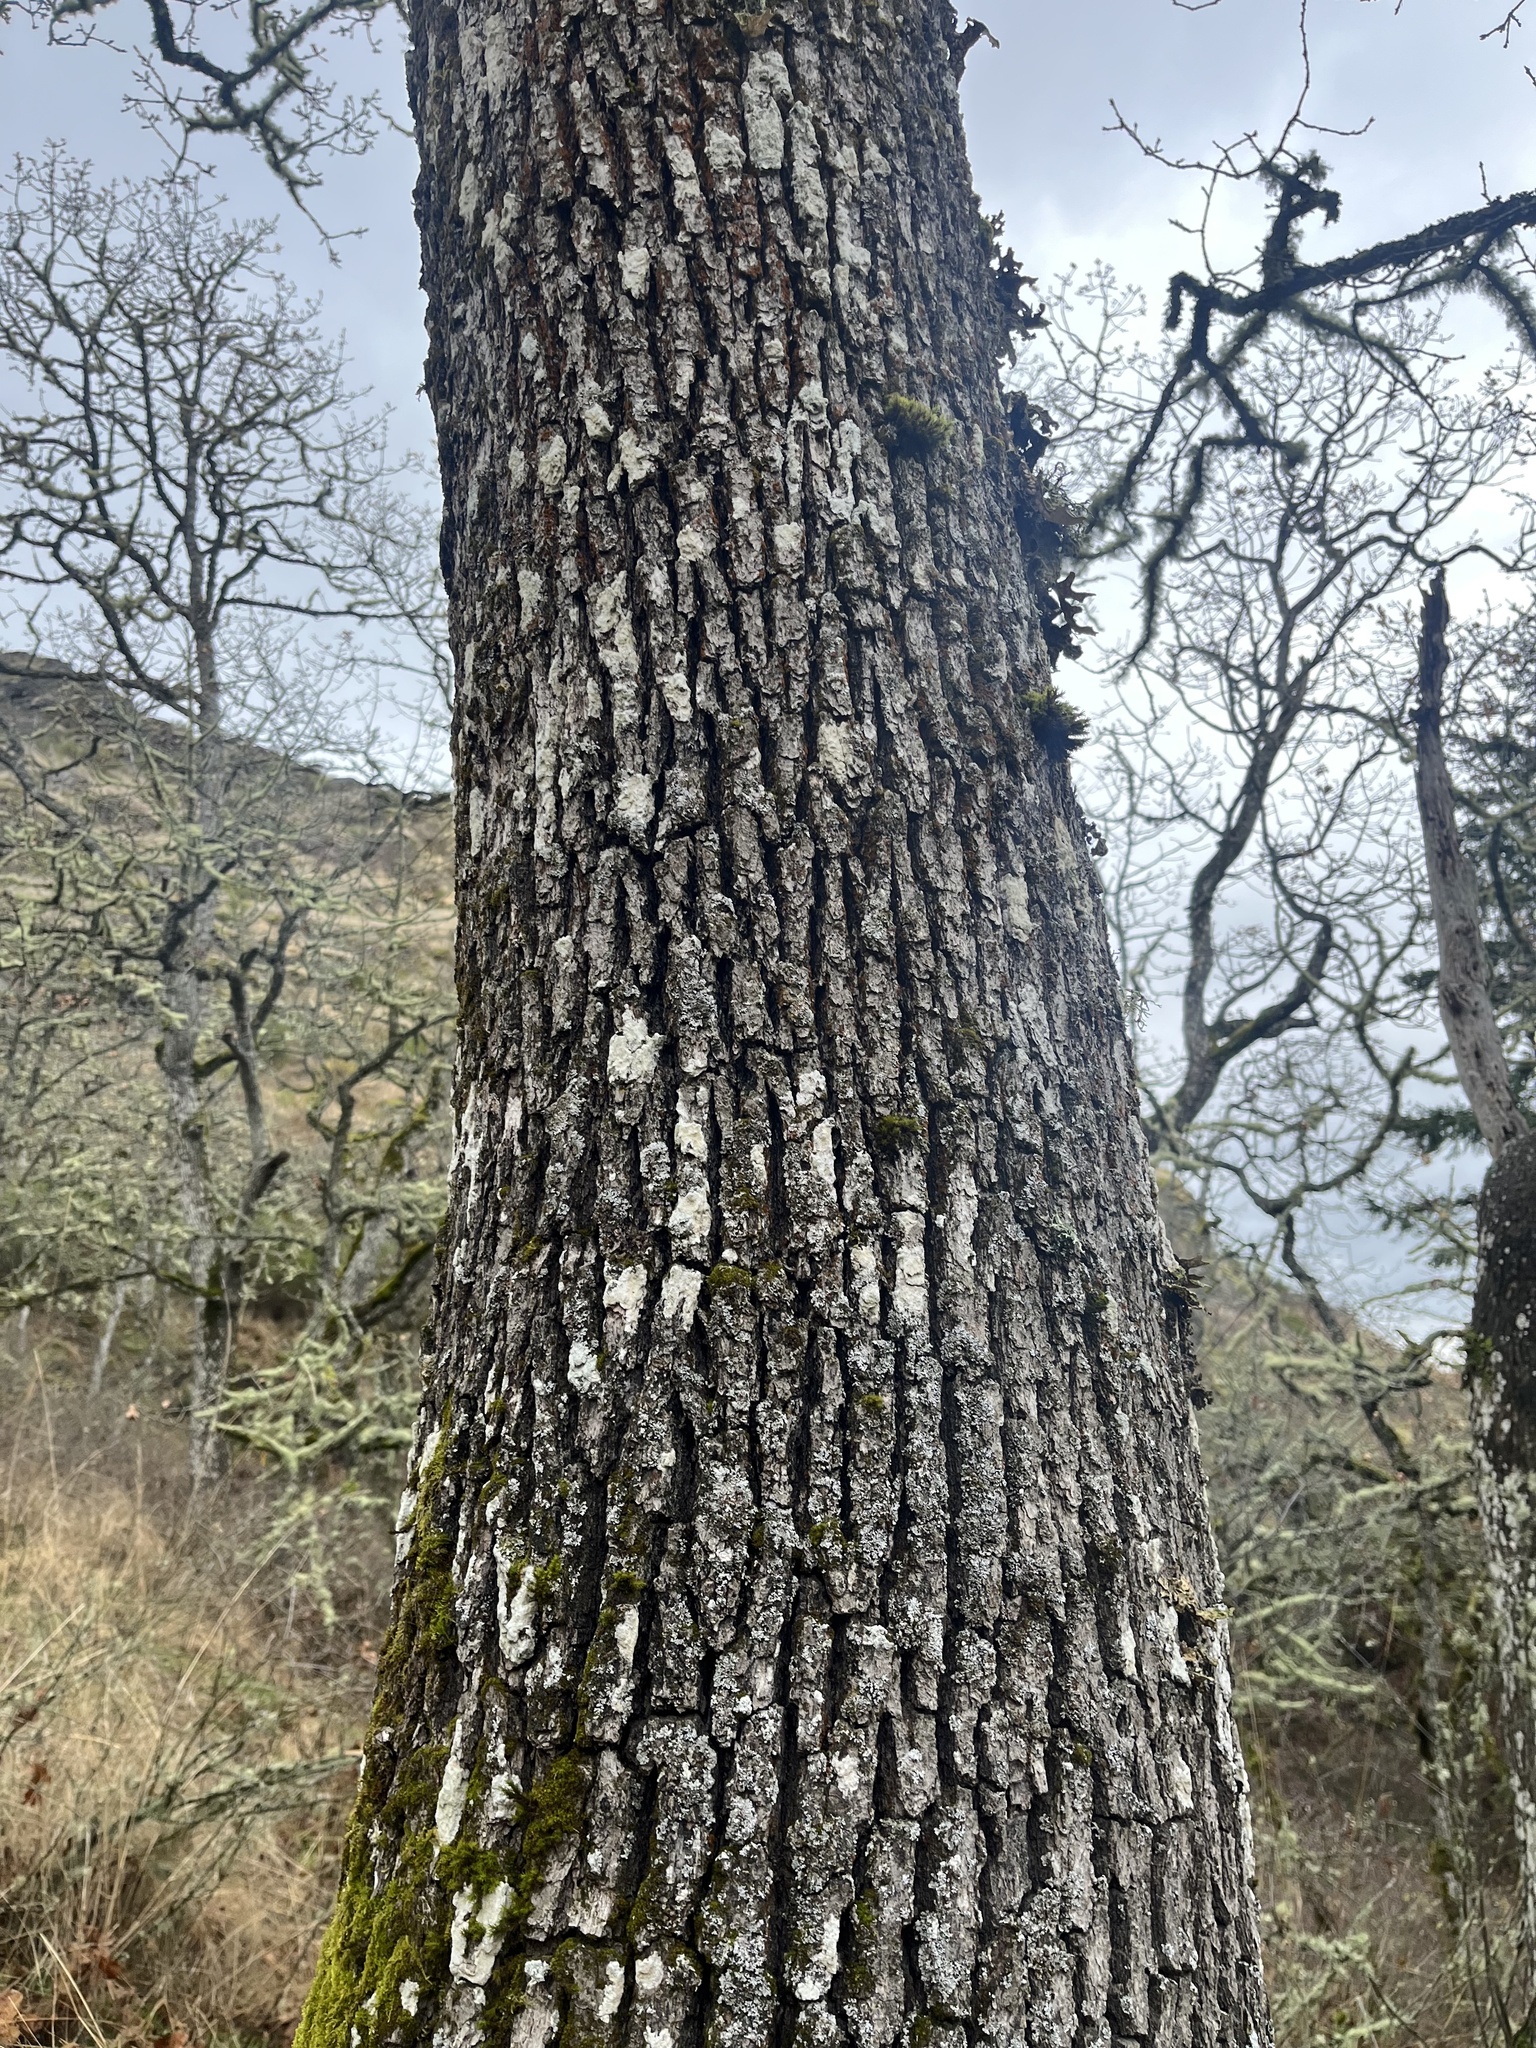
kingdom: Plantae
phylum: Tracheophyta
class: Magnoliopsida
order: Fagales
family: Fagaceae
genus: Quercus
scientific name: Quercus garryana
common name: Garry oak
